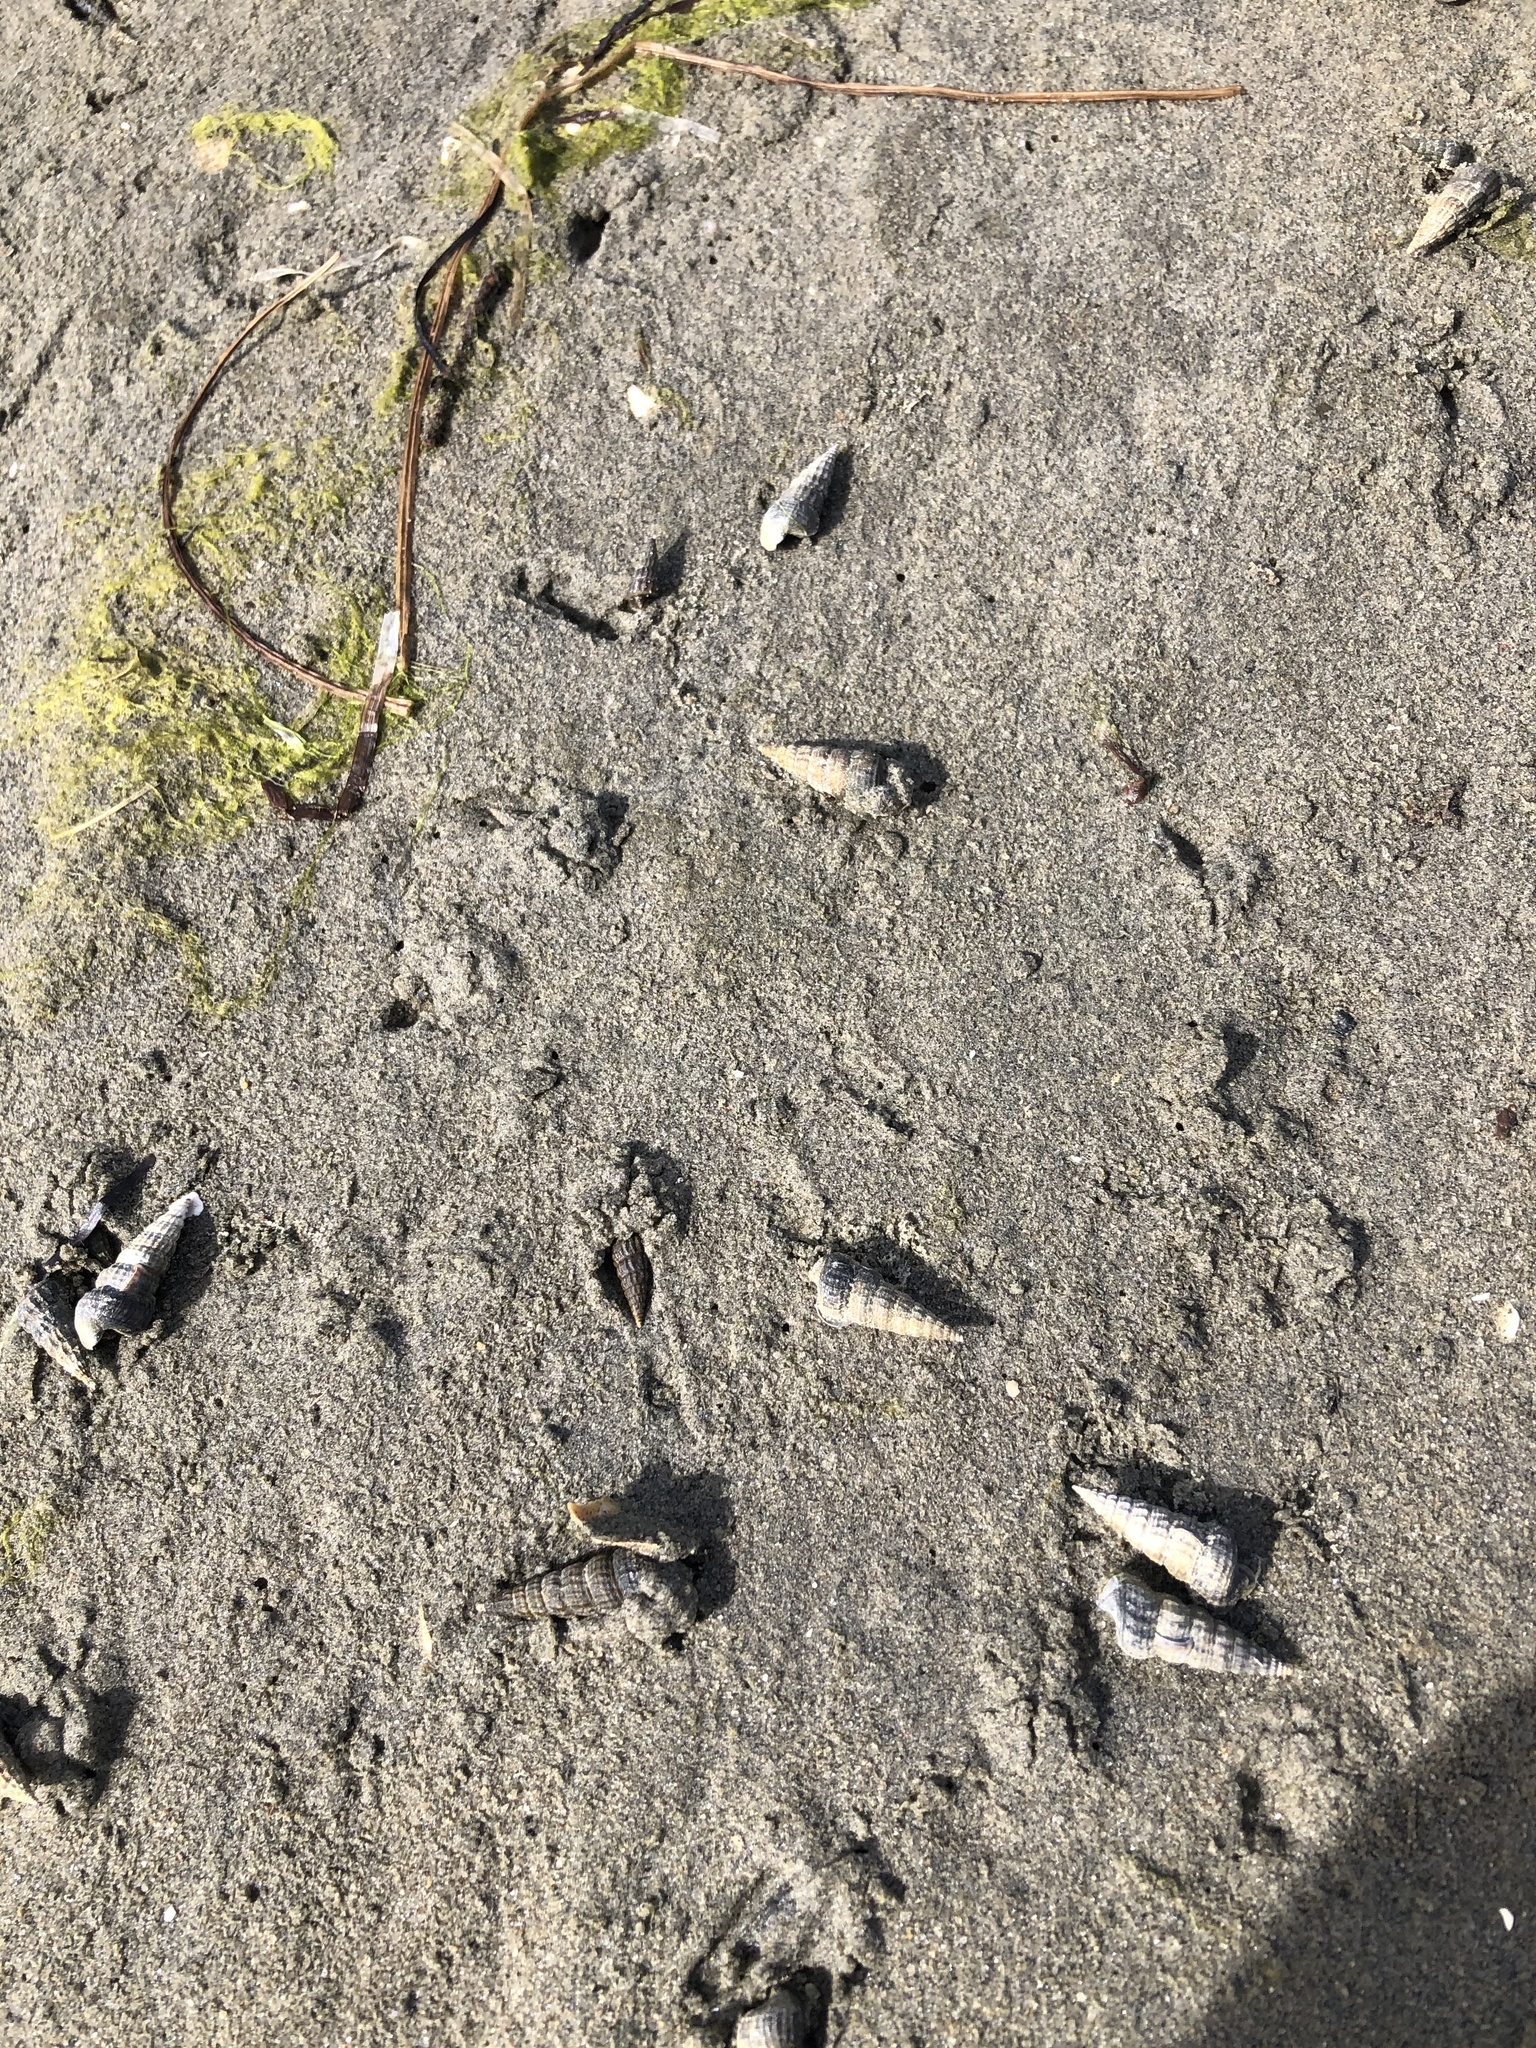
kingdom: Animalia
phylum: Mollusca
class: Gastropoda
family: Potamididae
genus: Cerithideopsis
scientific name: Cerithideopsis californica
